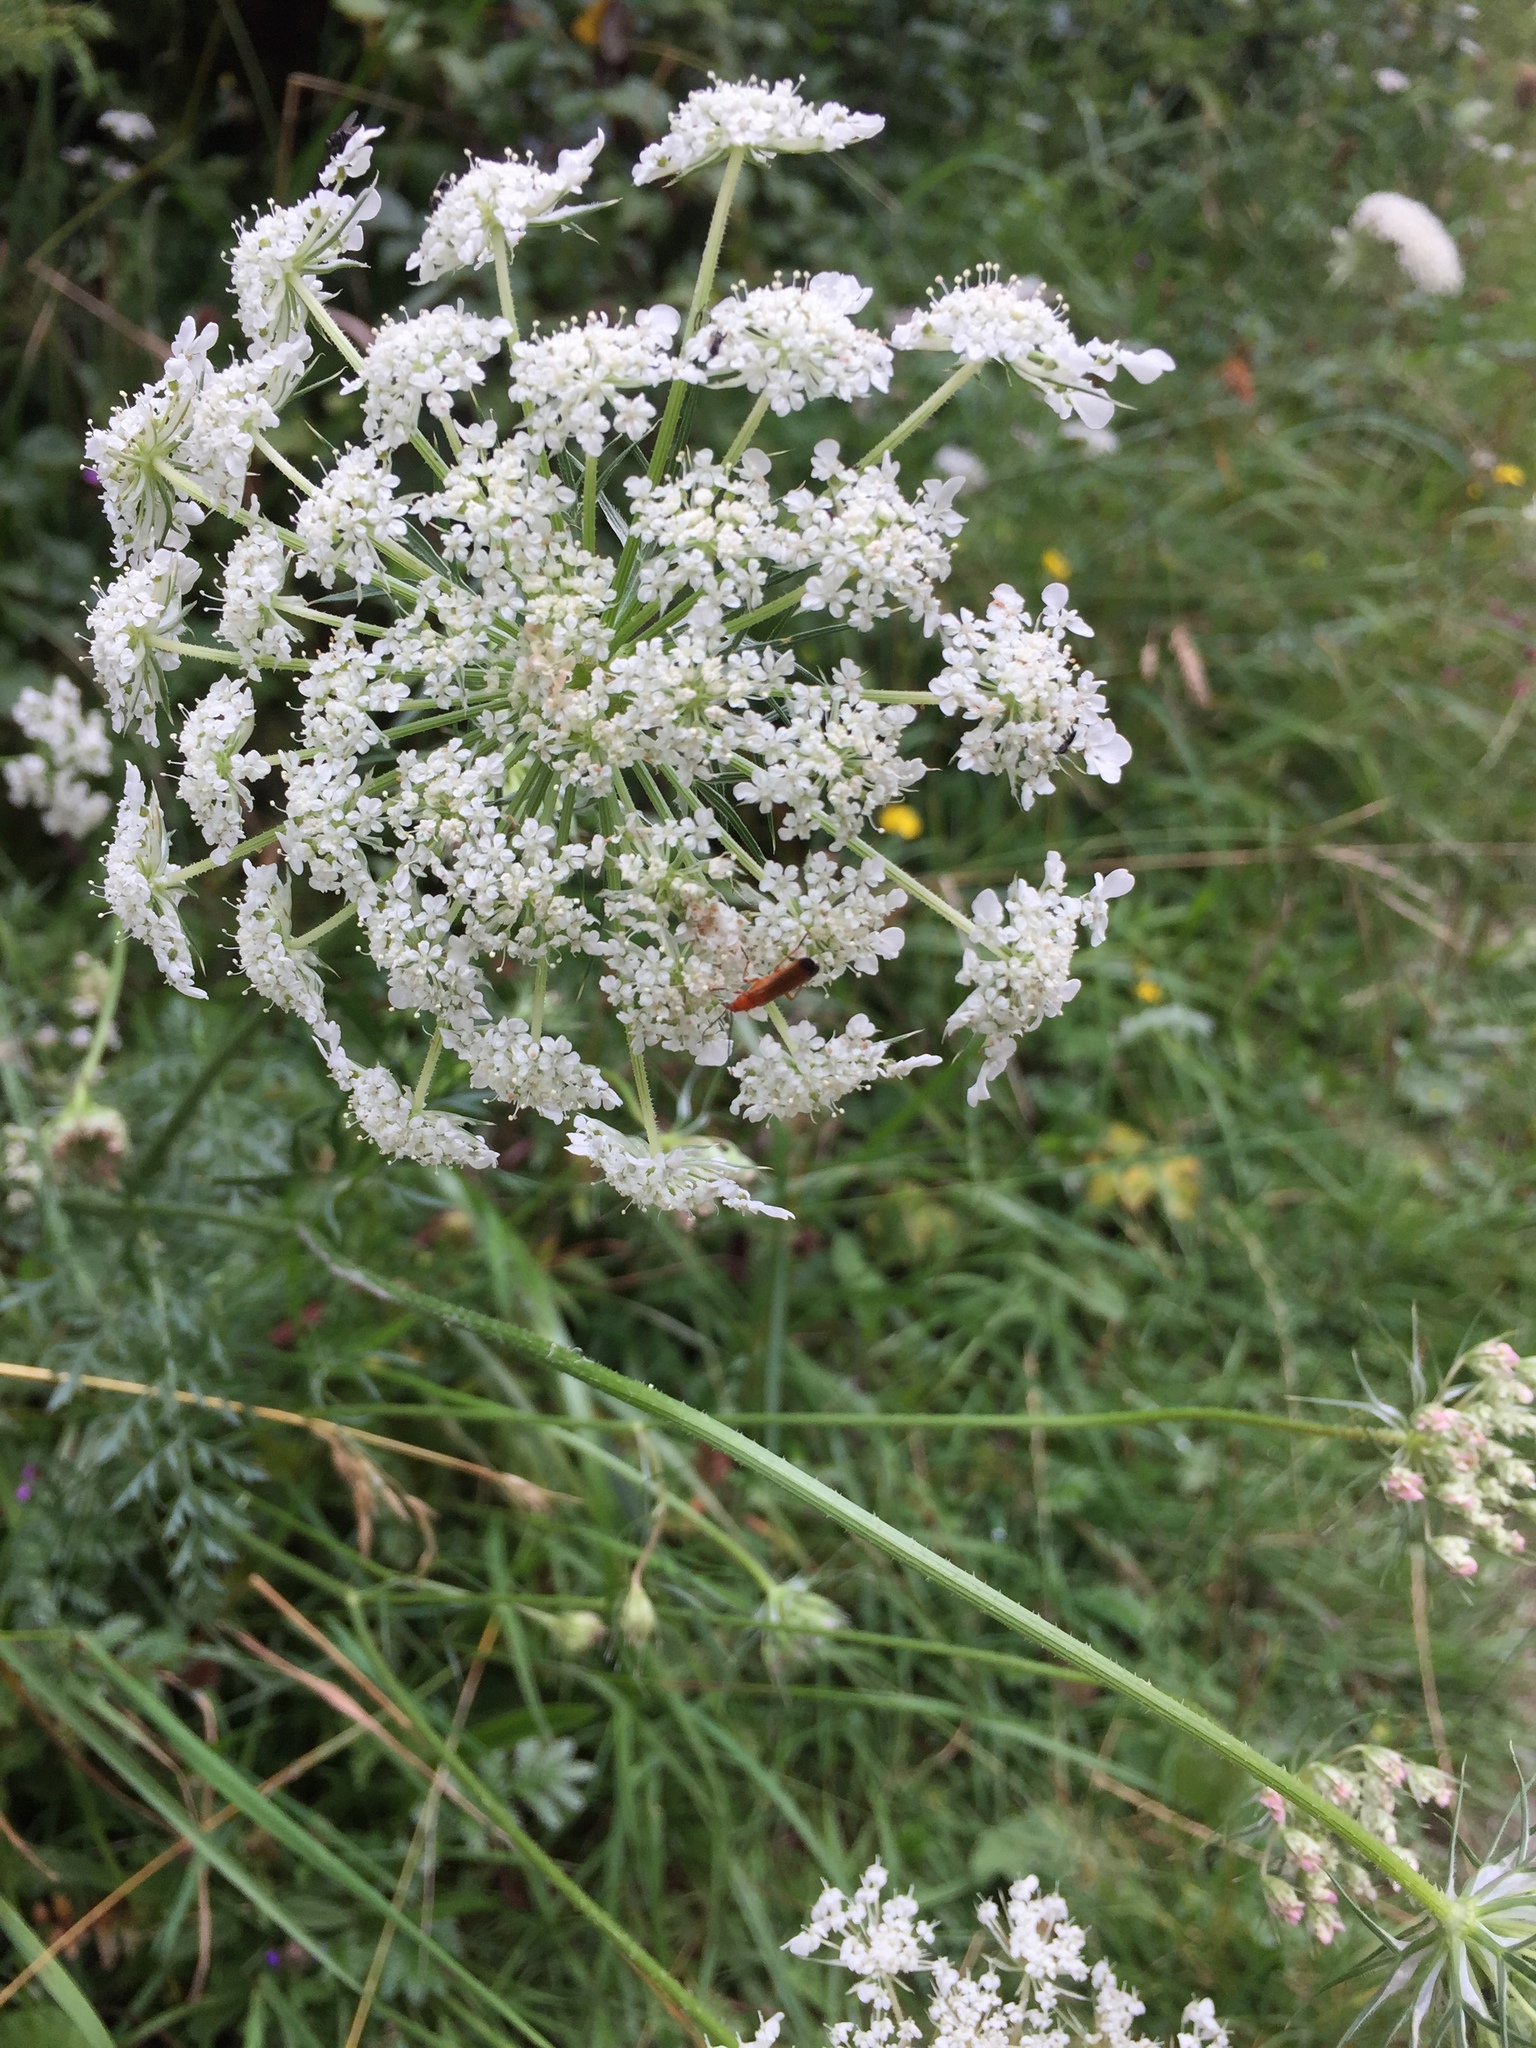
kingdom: Animalia
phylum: Arthropoda
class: Insecta
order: Coleoptera
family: Cantharidae
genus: Rhagonycha
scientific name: Rhagonycha fulva
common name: Common red soldier beetle
